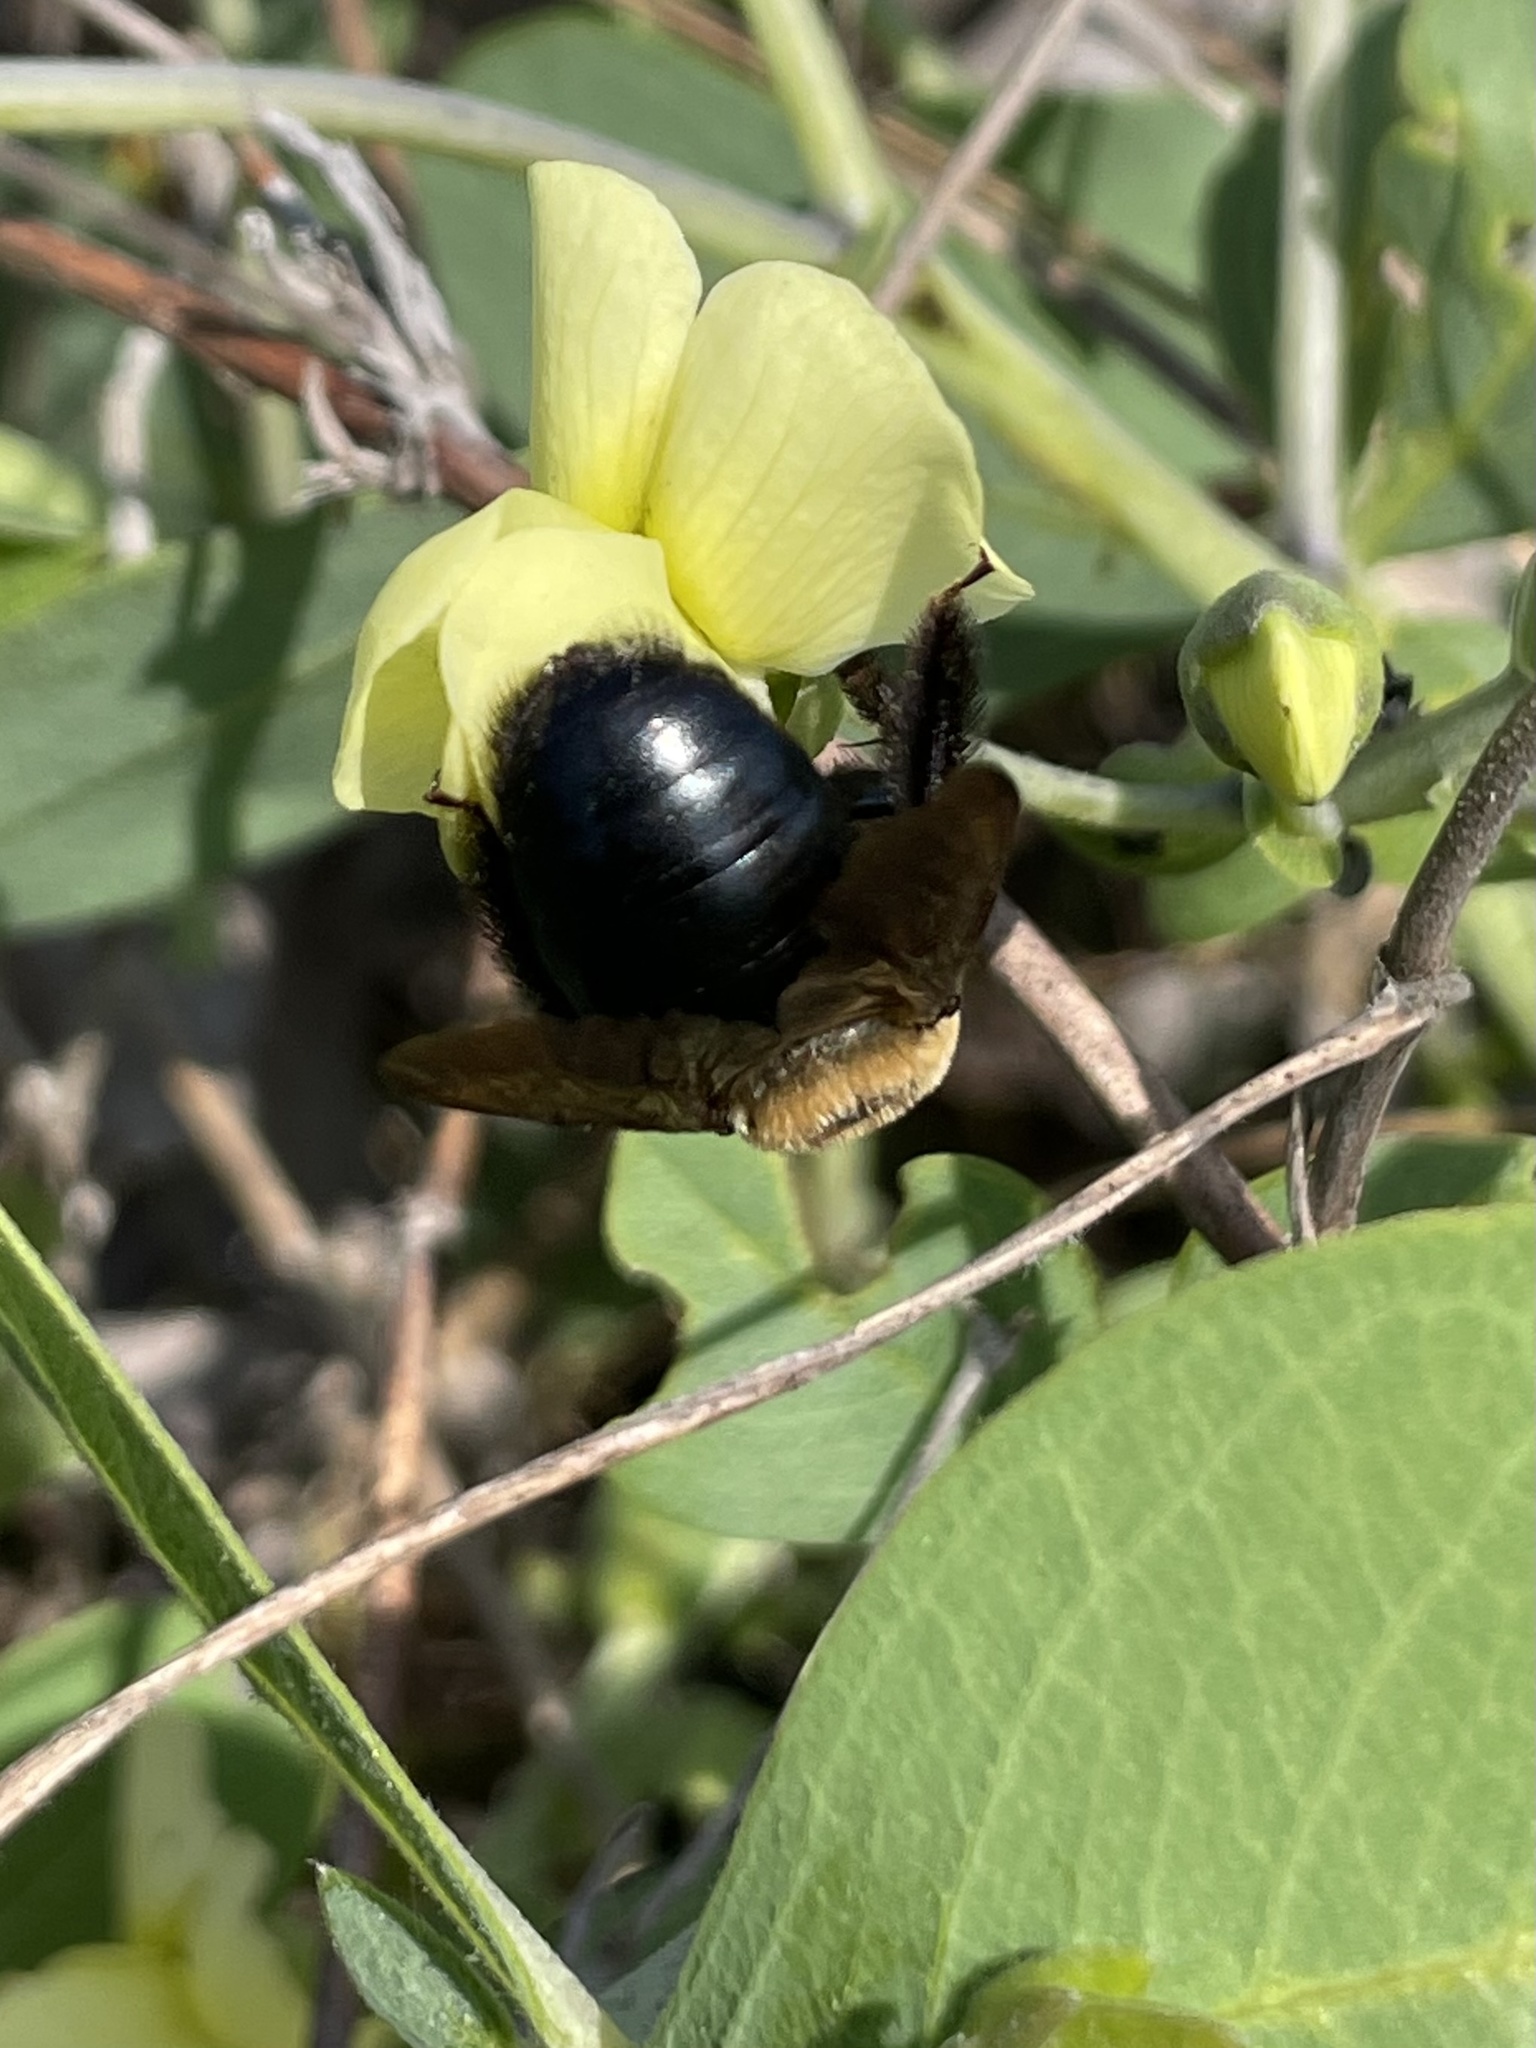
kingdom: Animalia
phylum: Arthropoda
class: Insecta
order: Hymenoptera
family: Apidae
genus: Xylocopa
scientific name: Xylocopa virginica
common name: Carpenter bee
